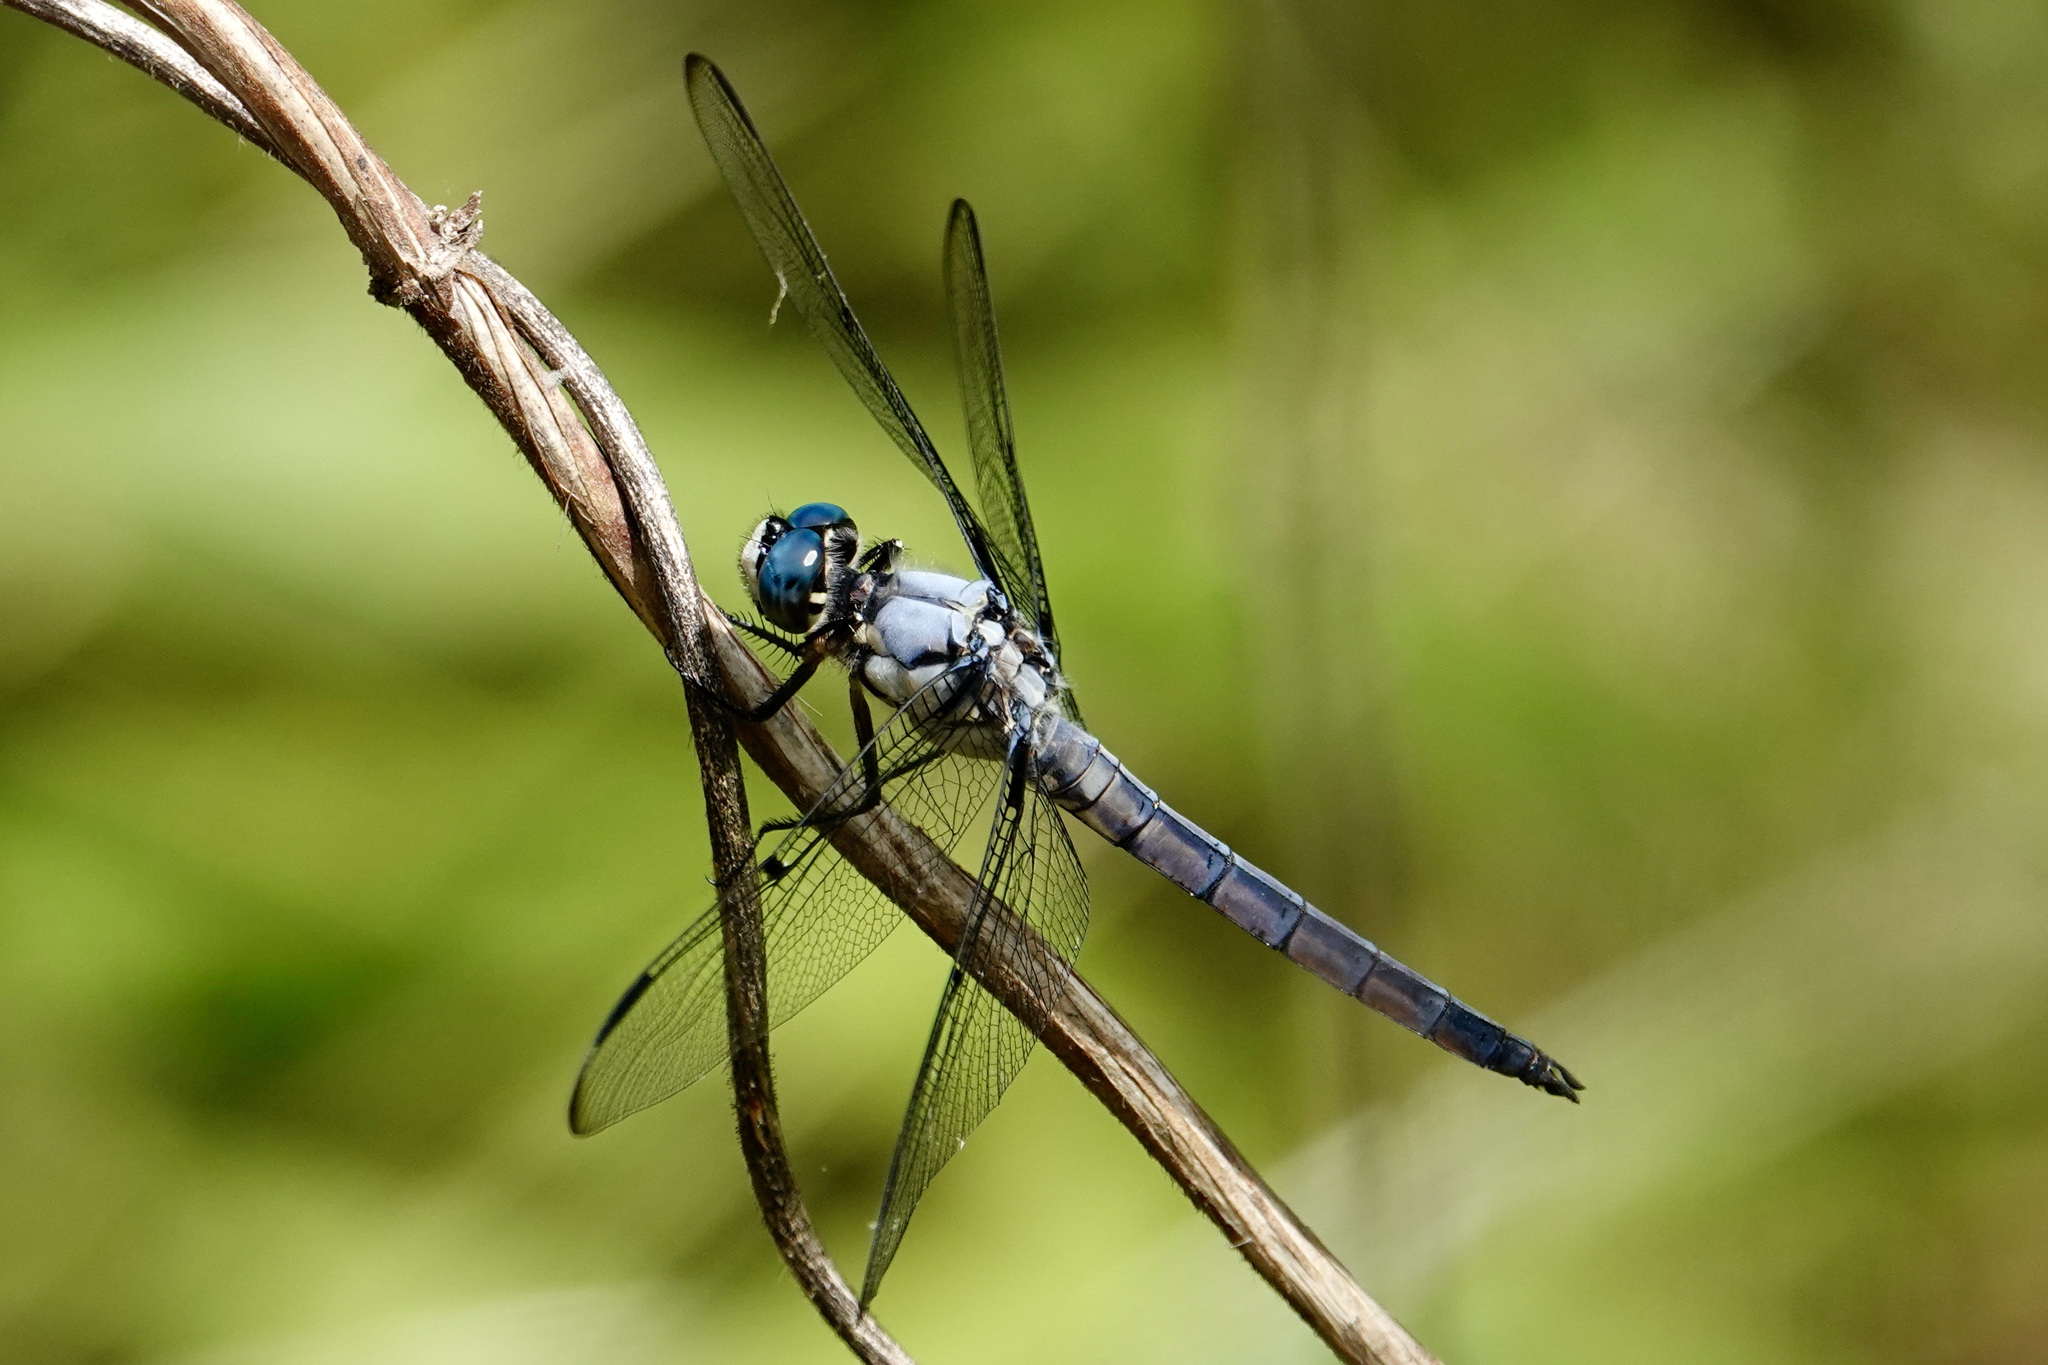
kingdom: Animalia
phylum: Arthropoda
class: Insecta
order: Odonata
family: Libellulidae
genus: Libellula
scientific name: Libellula vibrans
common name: Great blue skimmer
